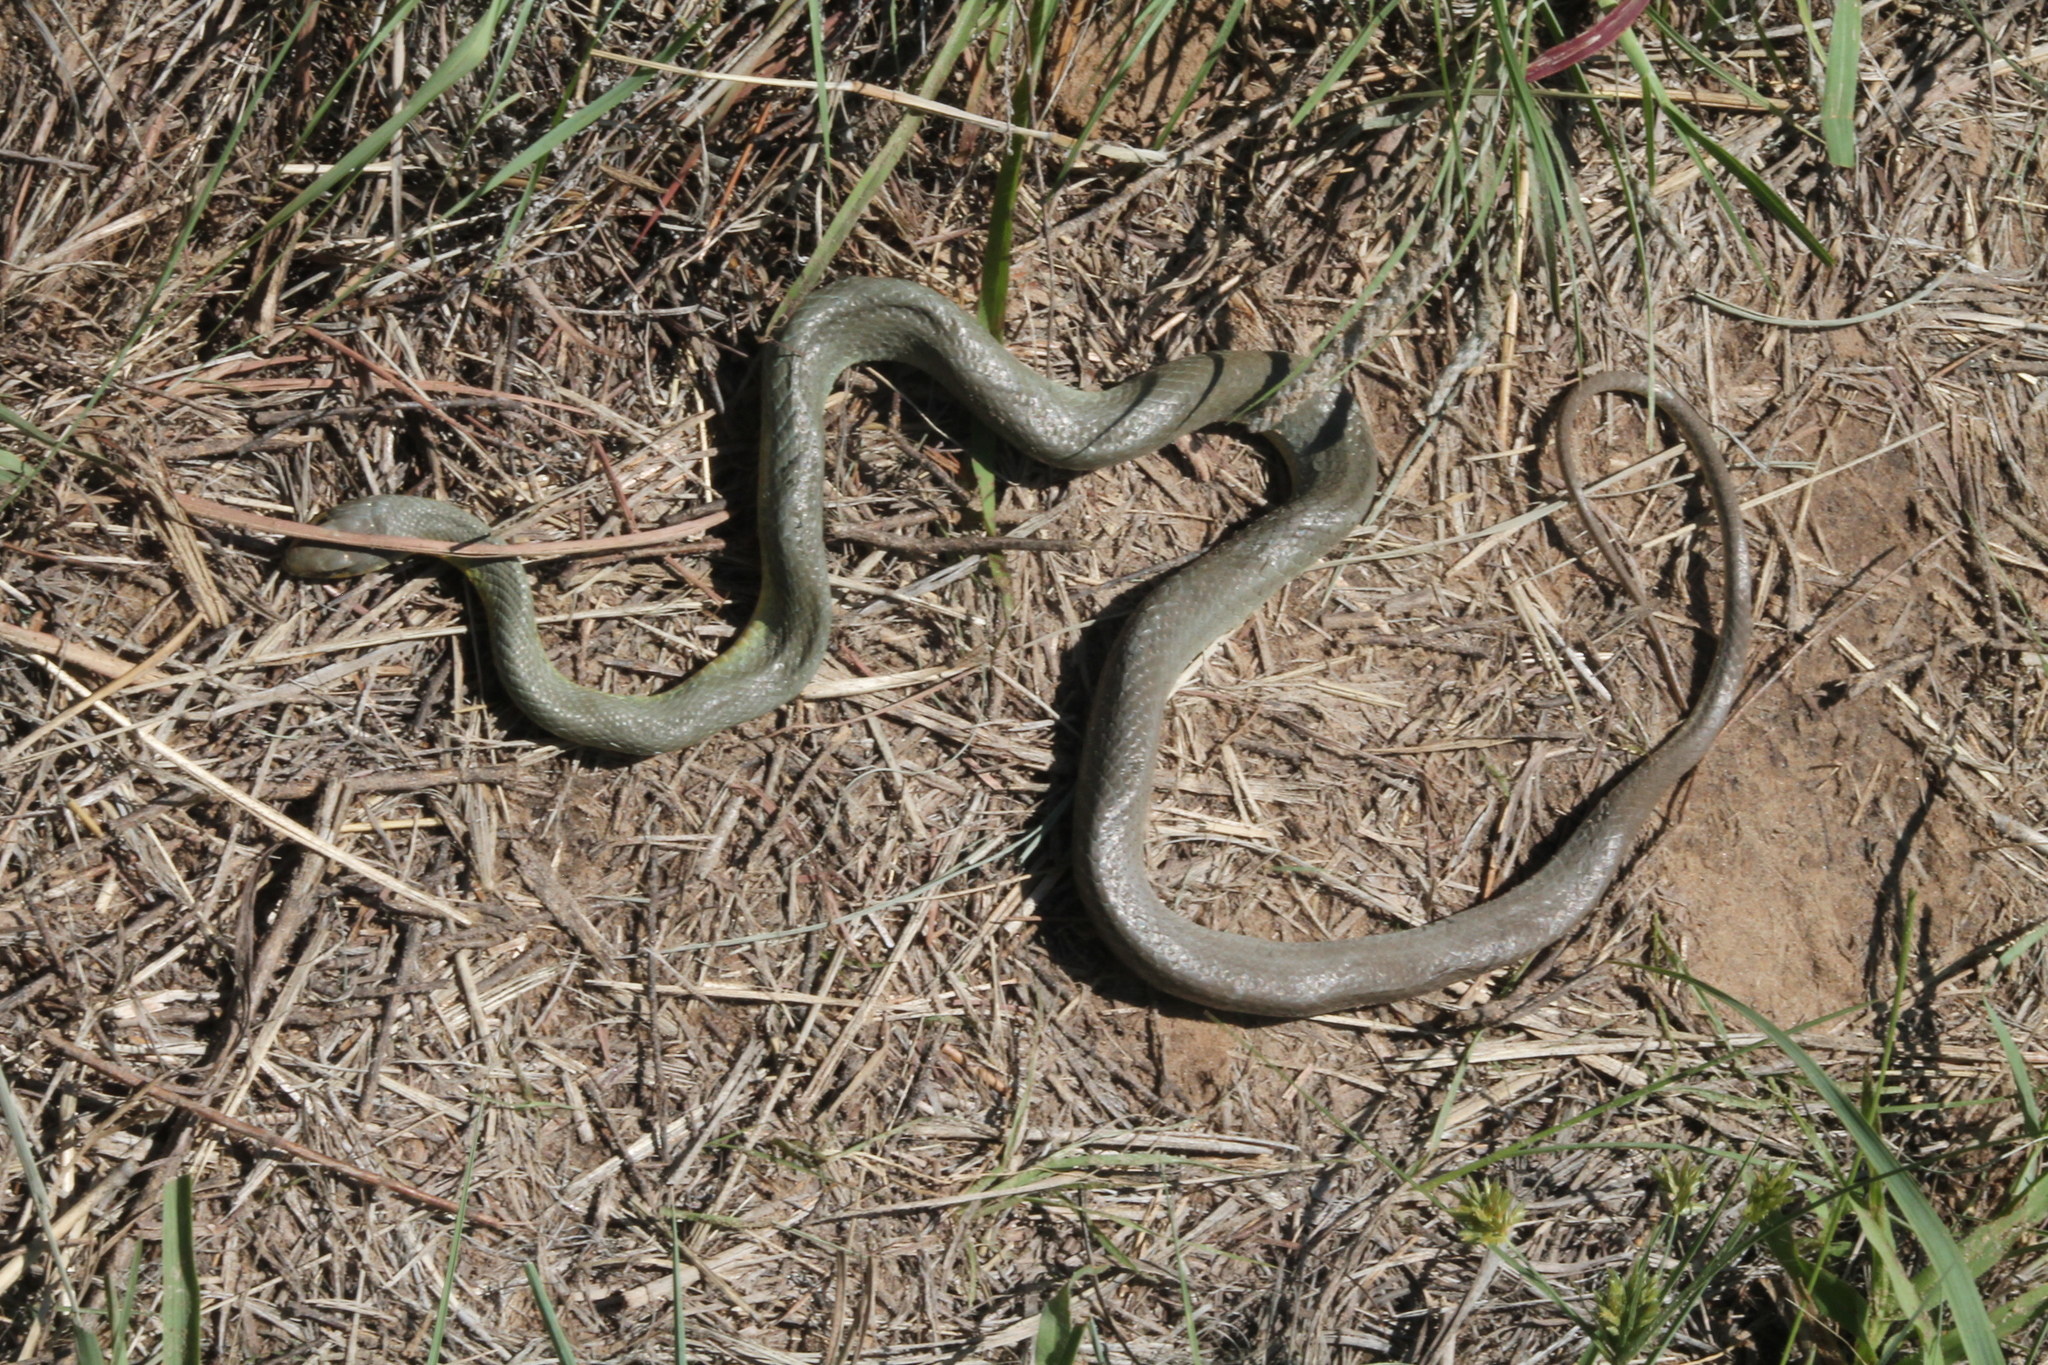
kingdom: Animalia
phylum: Chordata
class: Squamata
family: Colubridae
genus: Coluber
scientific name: Coluber constrictor
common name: Eastern racer
